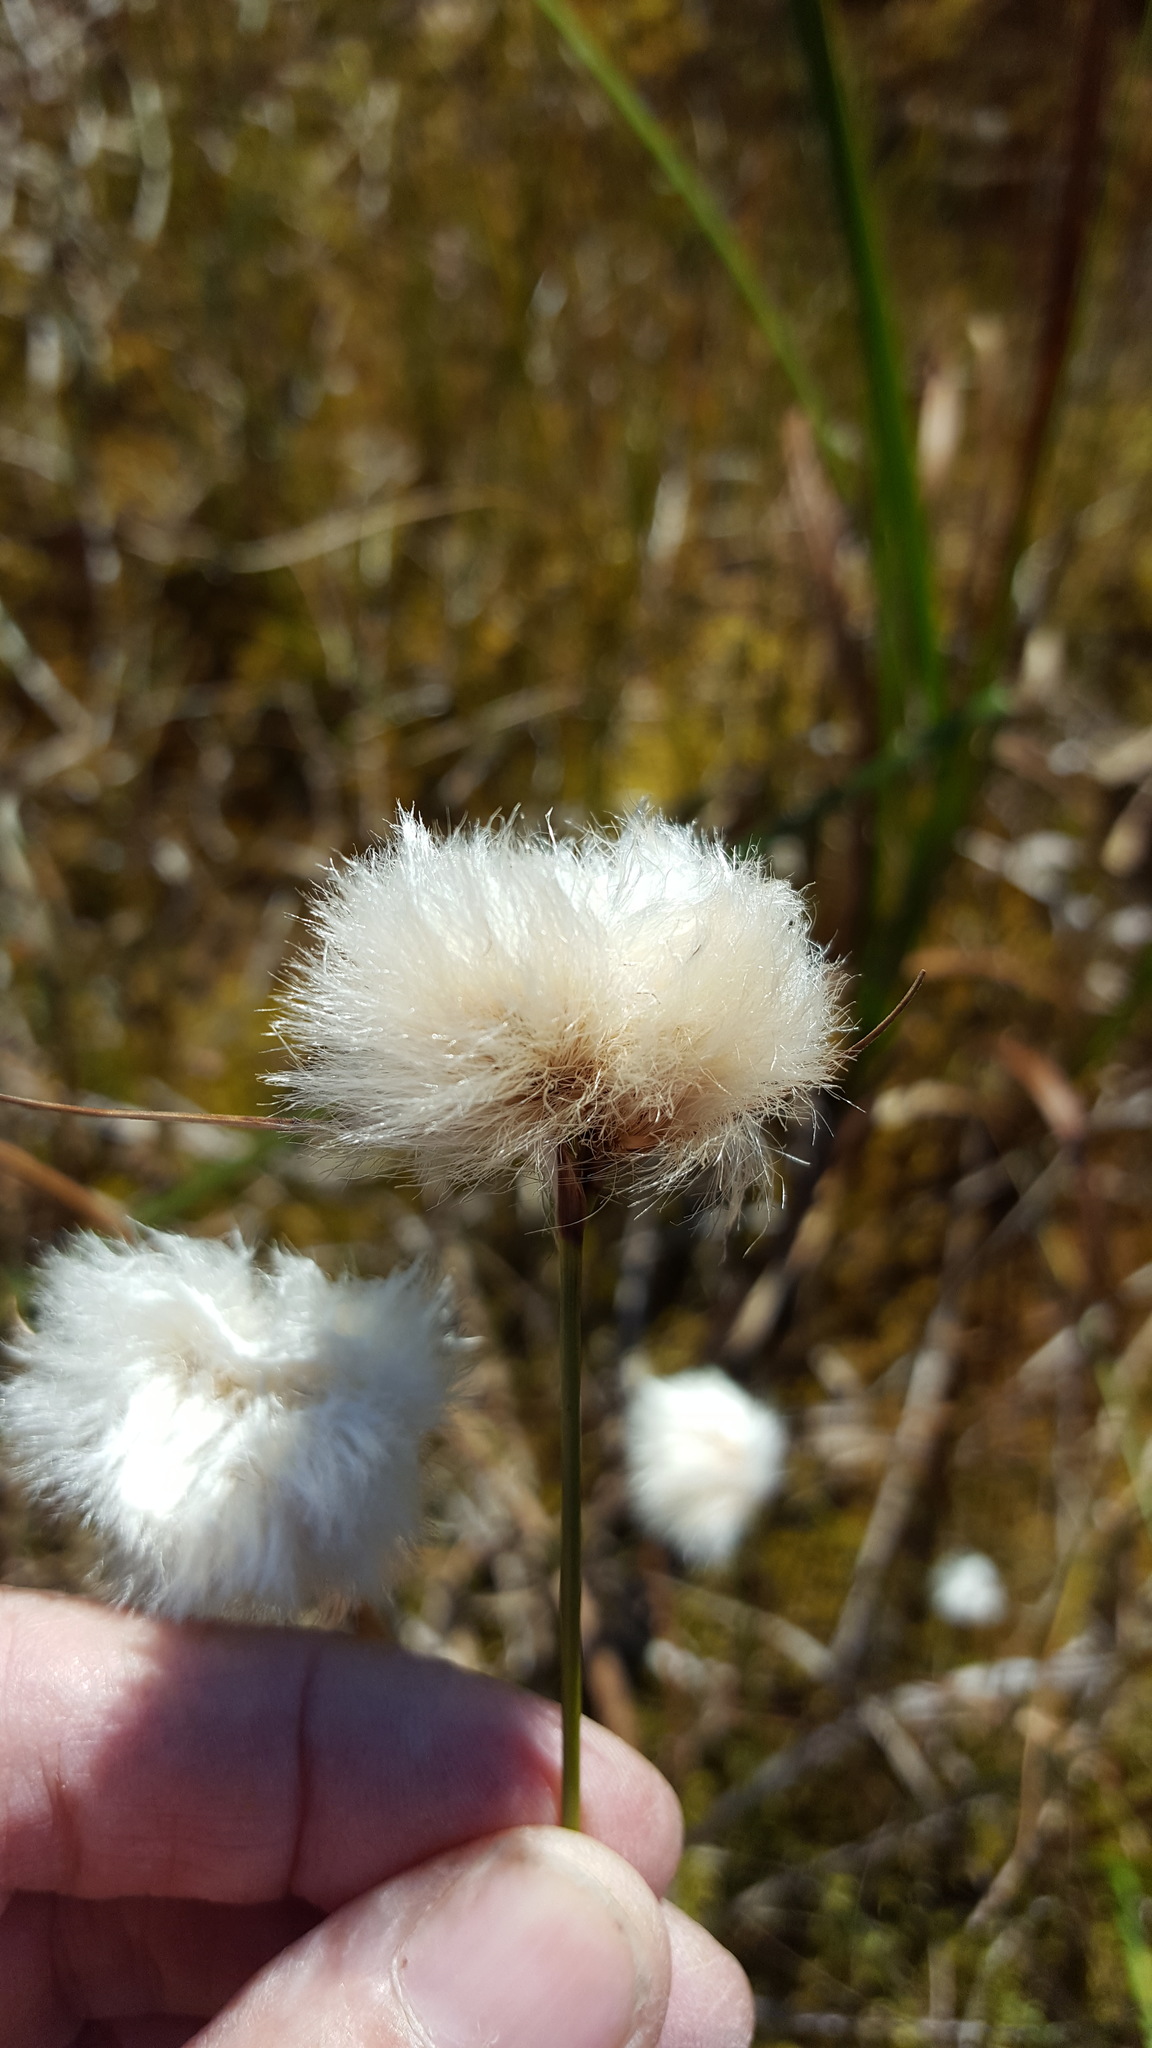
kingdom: Plantae
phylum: Tracheophyta
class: Liliopsida
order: Poales
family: Cyperaceae
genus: Eriophorum
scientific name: Eriophorum virginicum
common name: Tawny cottongrass
